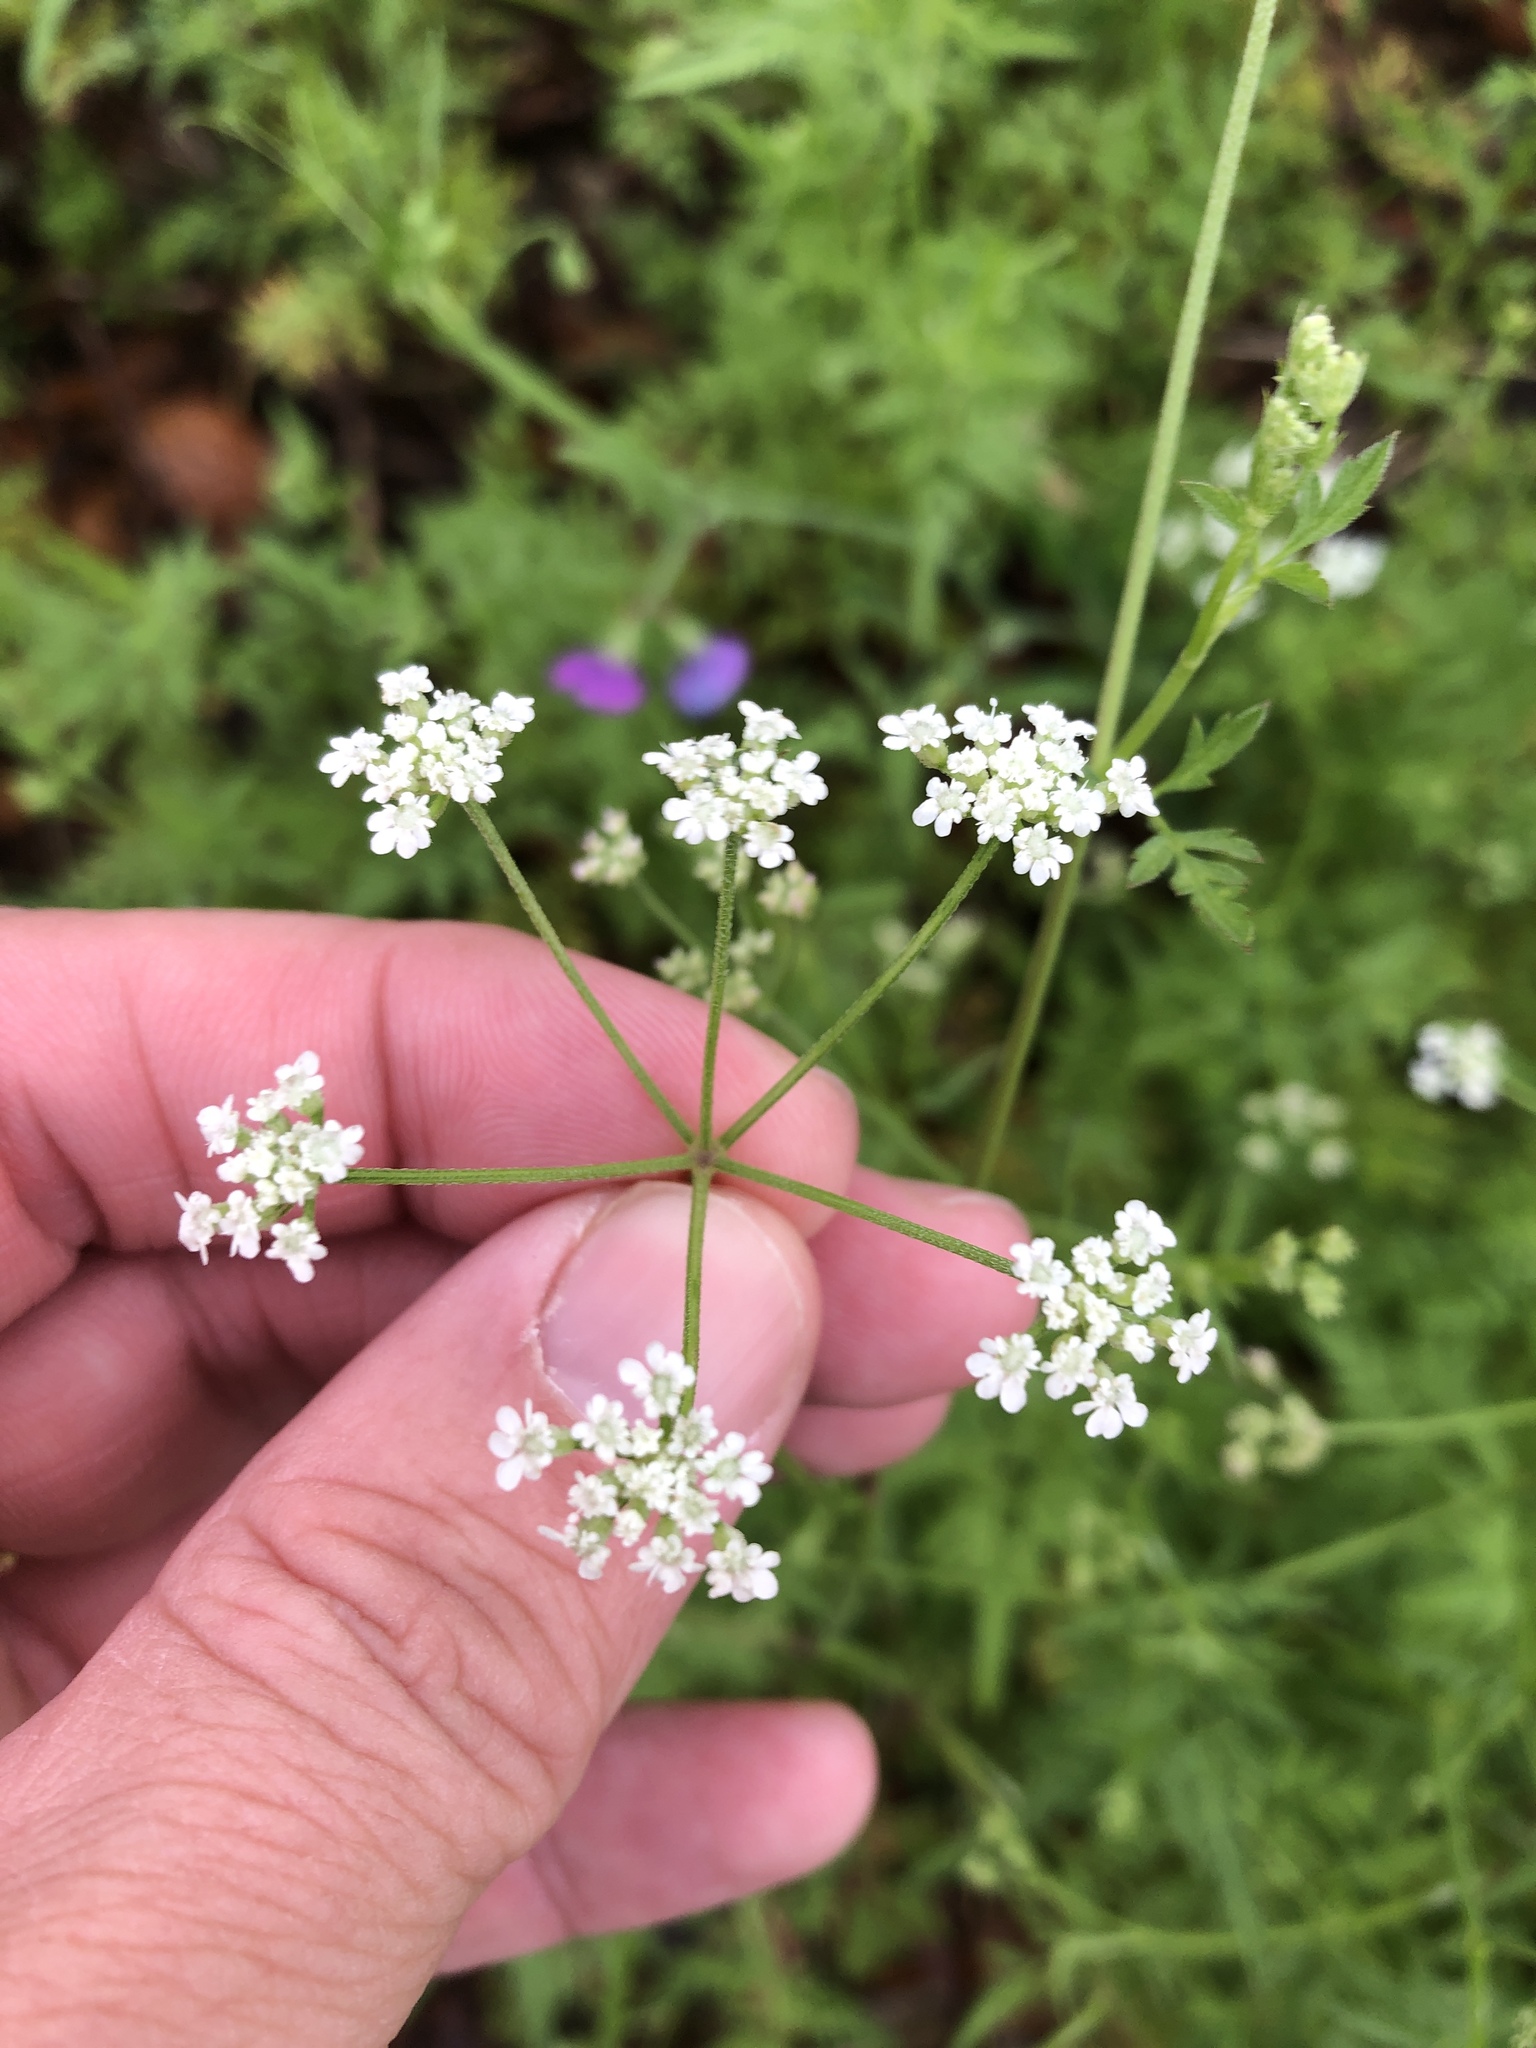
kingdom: Plantae
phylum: Tracheophyta
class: Magnoliopsida
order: Apiales
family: Apiaceae
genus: Torilis
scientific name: Torilis arvensis
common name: Spreading hedge-parsley
